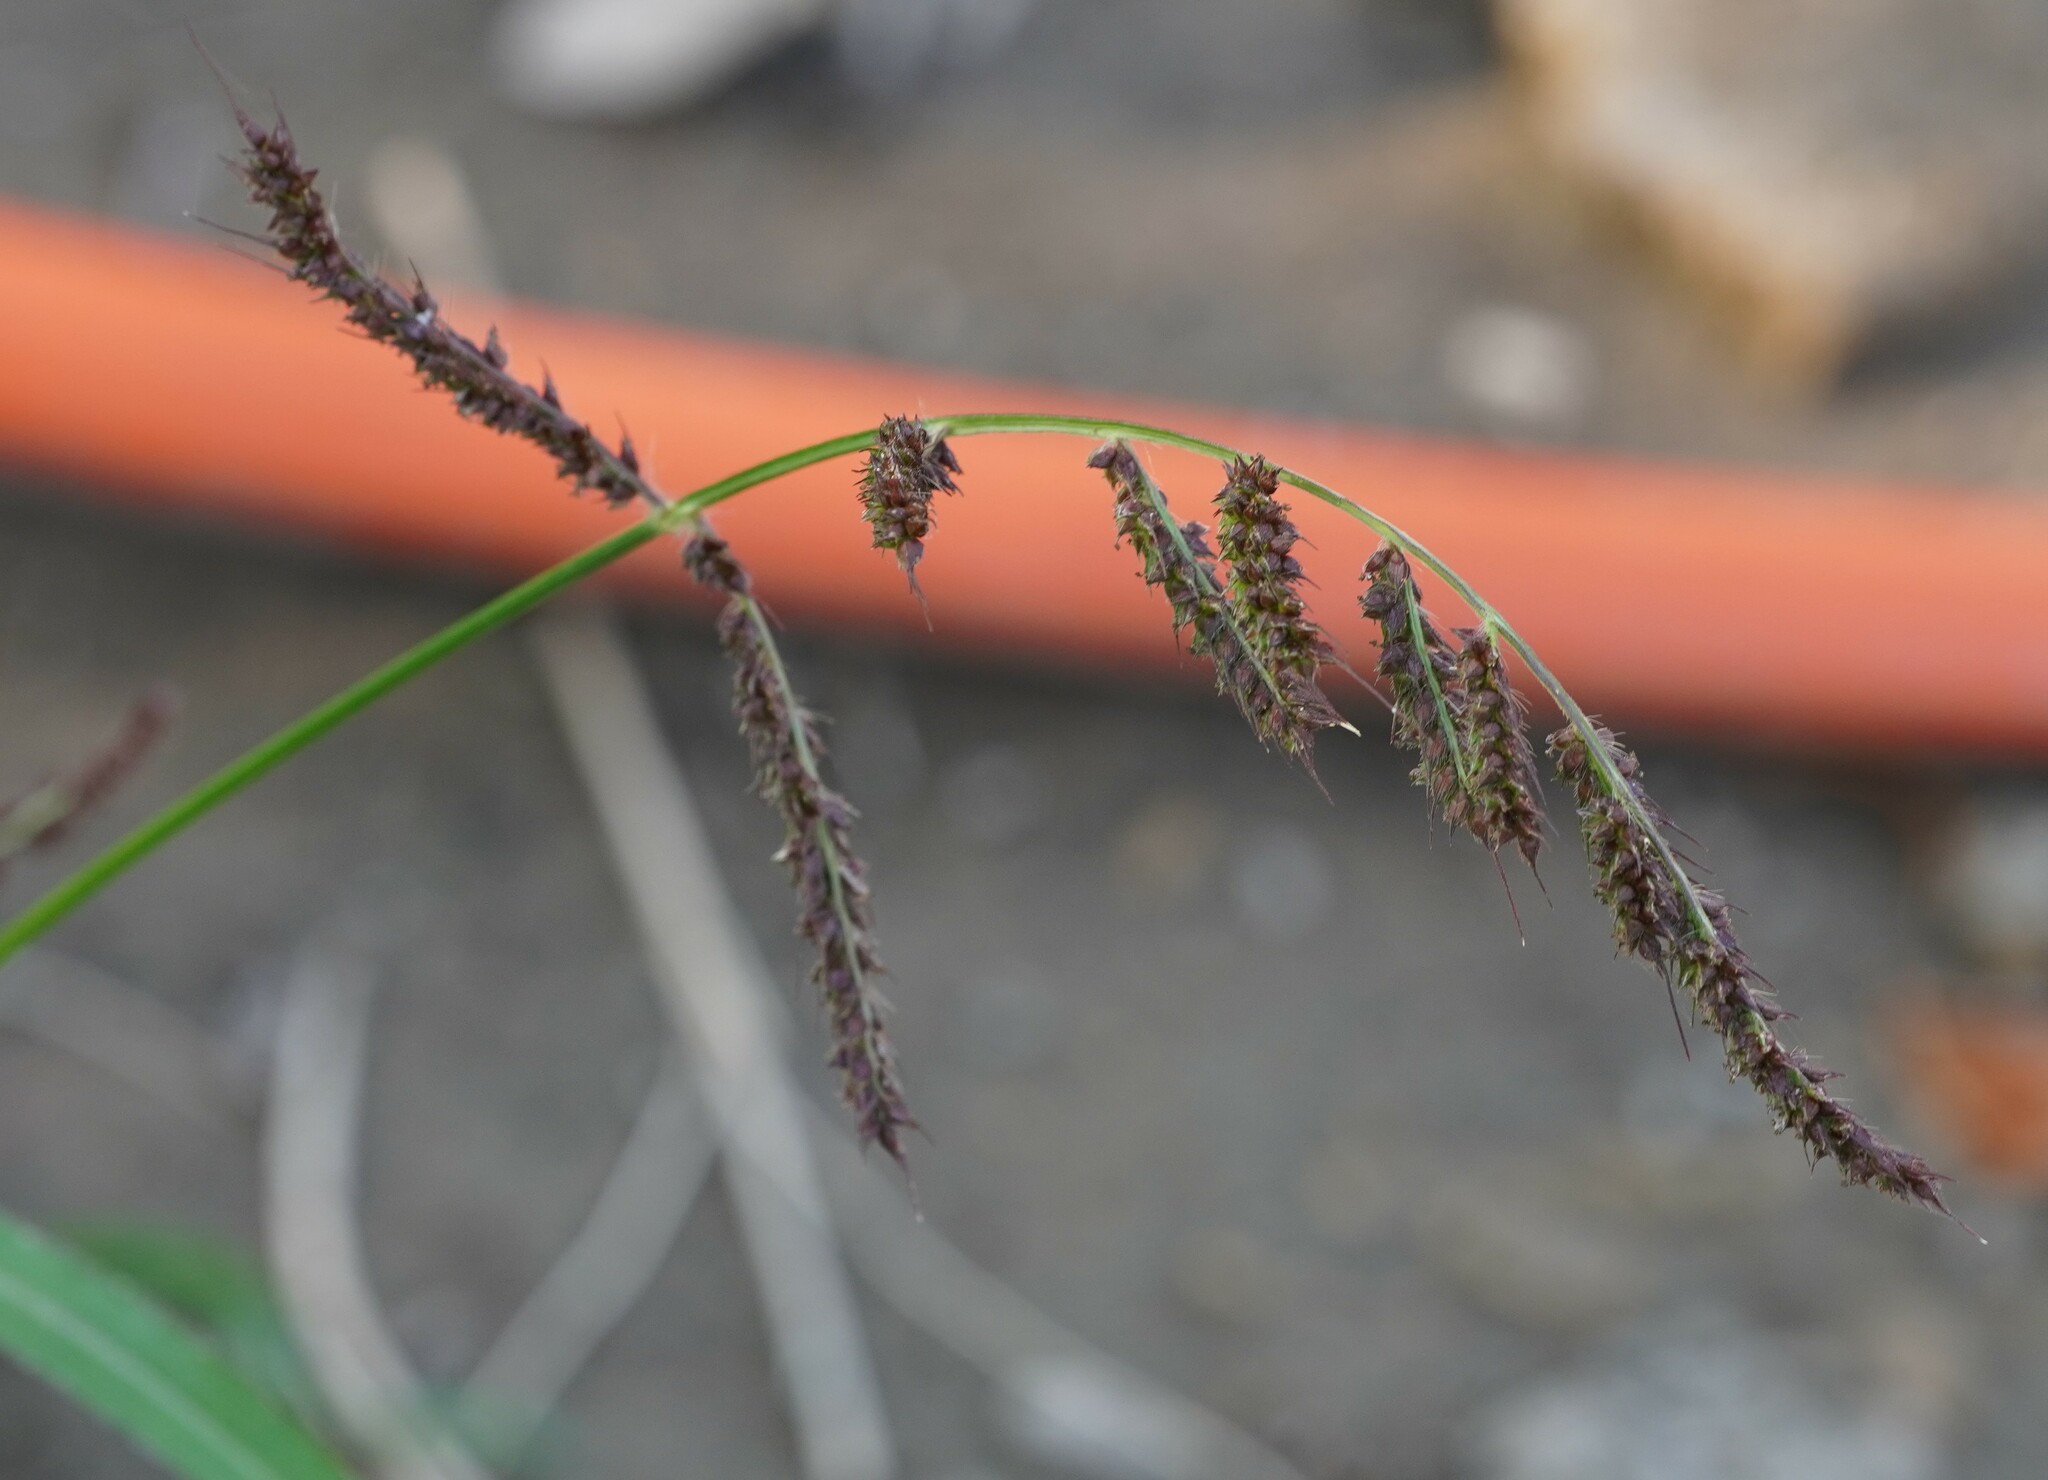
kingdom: Plantae
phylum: Tracheophyta
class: Liliopsida
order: Poales
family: Poaceae
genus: Echinochloa
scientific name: Echinochloa crus-galli
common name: Cockspur
